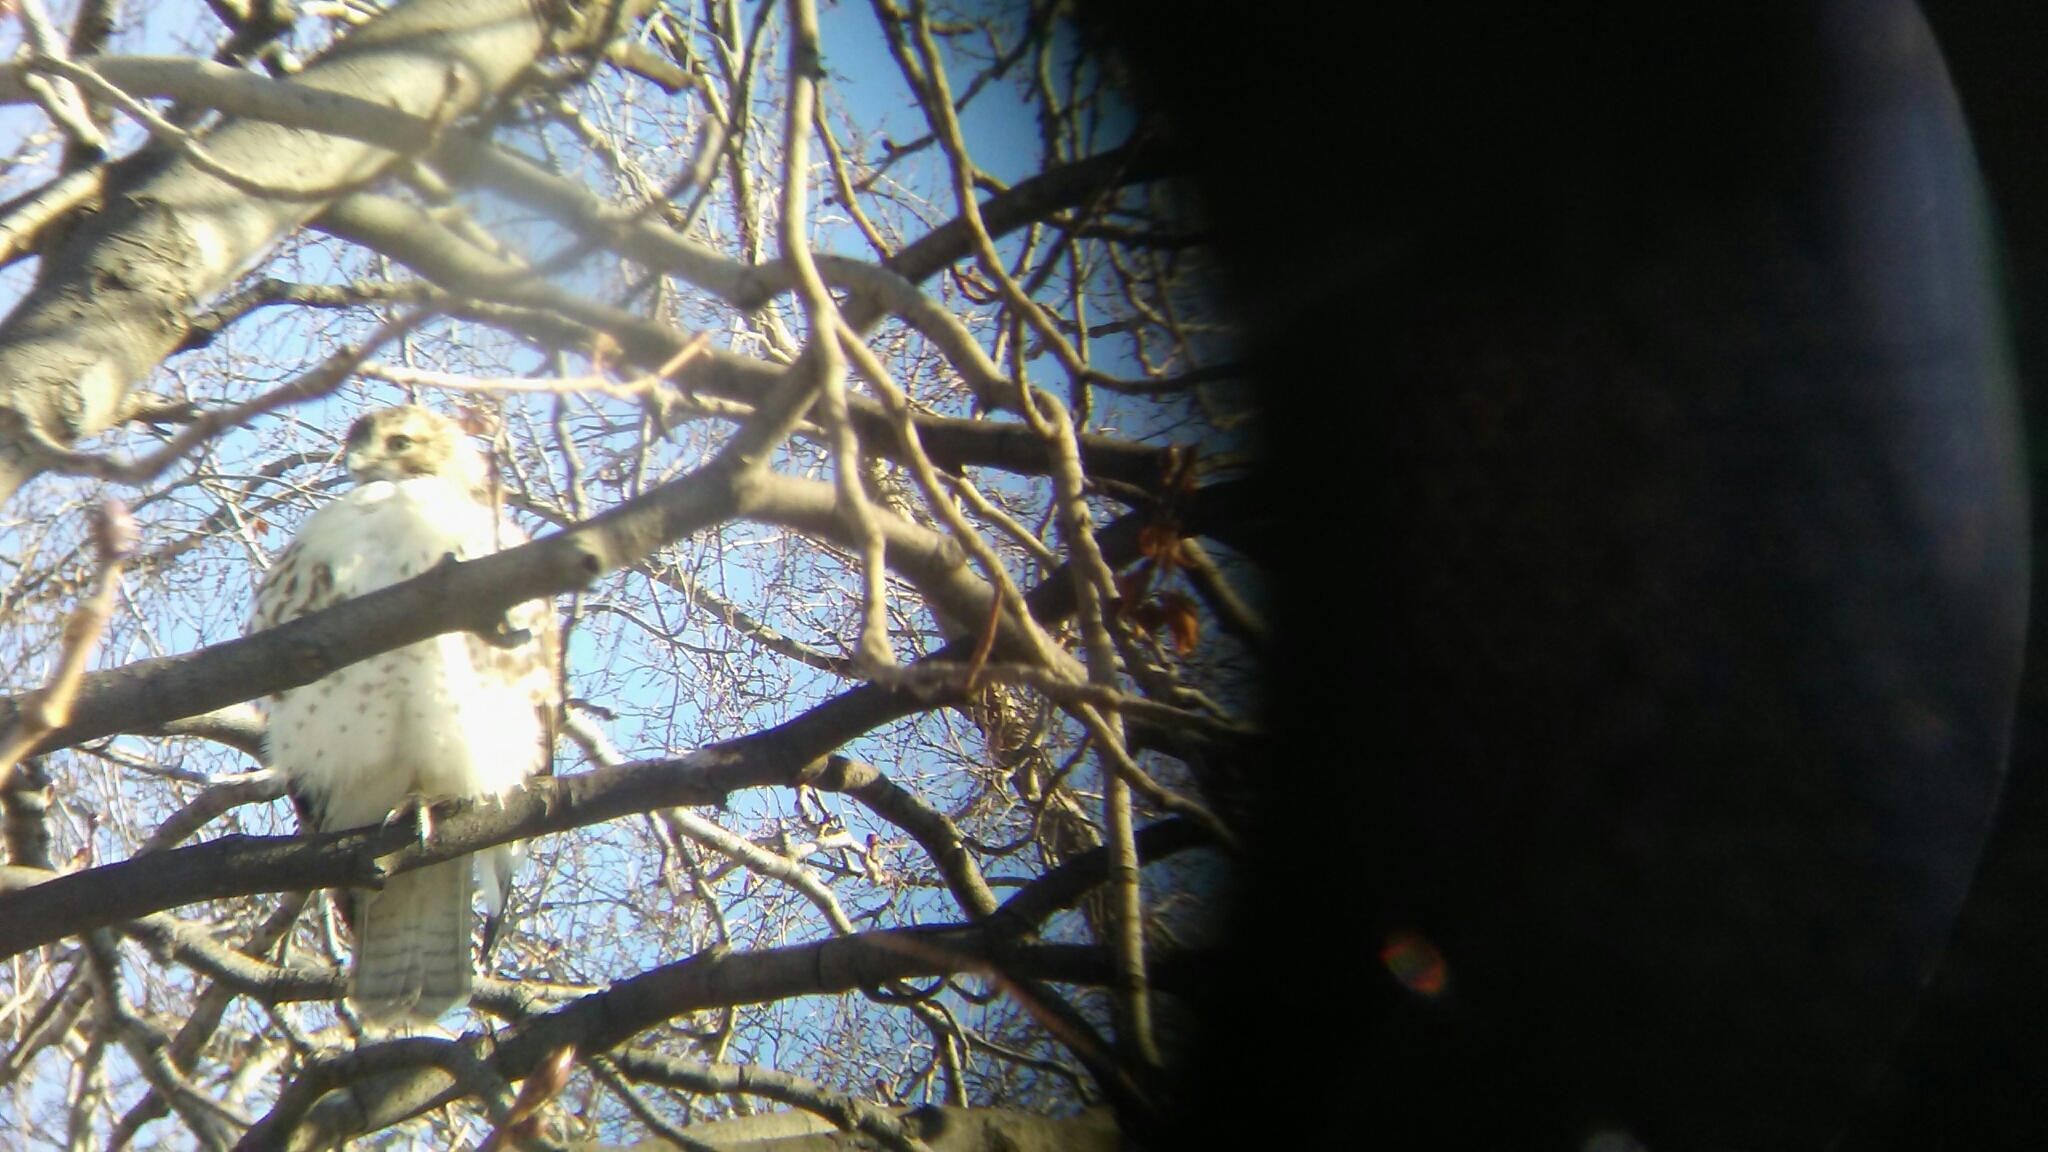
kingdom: Animalia
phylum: Chordata
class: Aves
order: Accipitriformes
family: Accipitridae
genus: Buteo
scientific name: Buteo jamaicensis
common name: Red-tailed hawk
